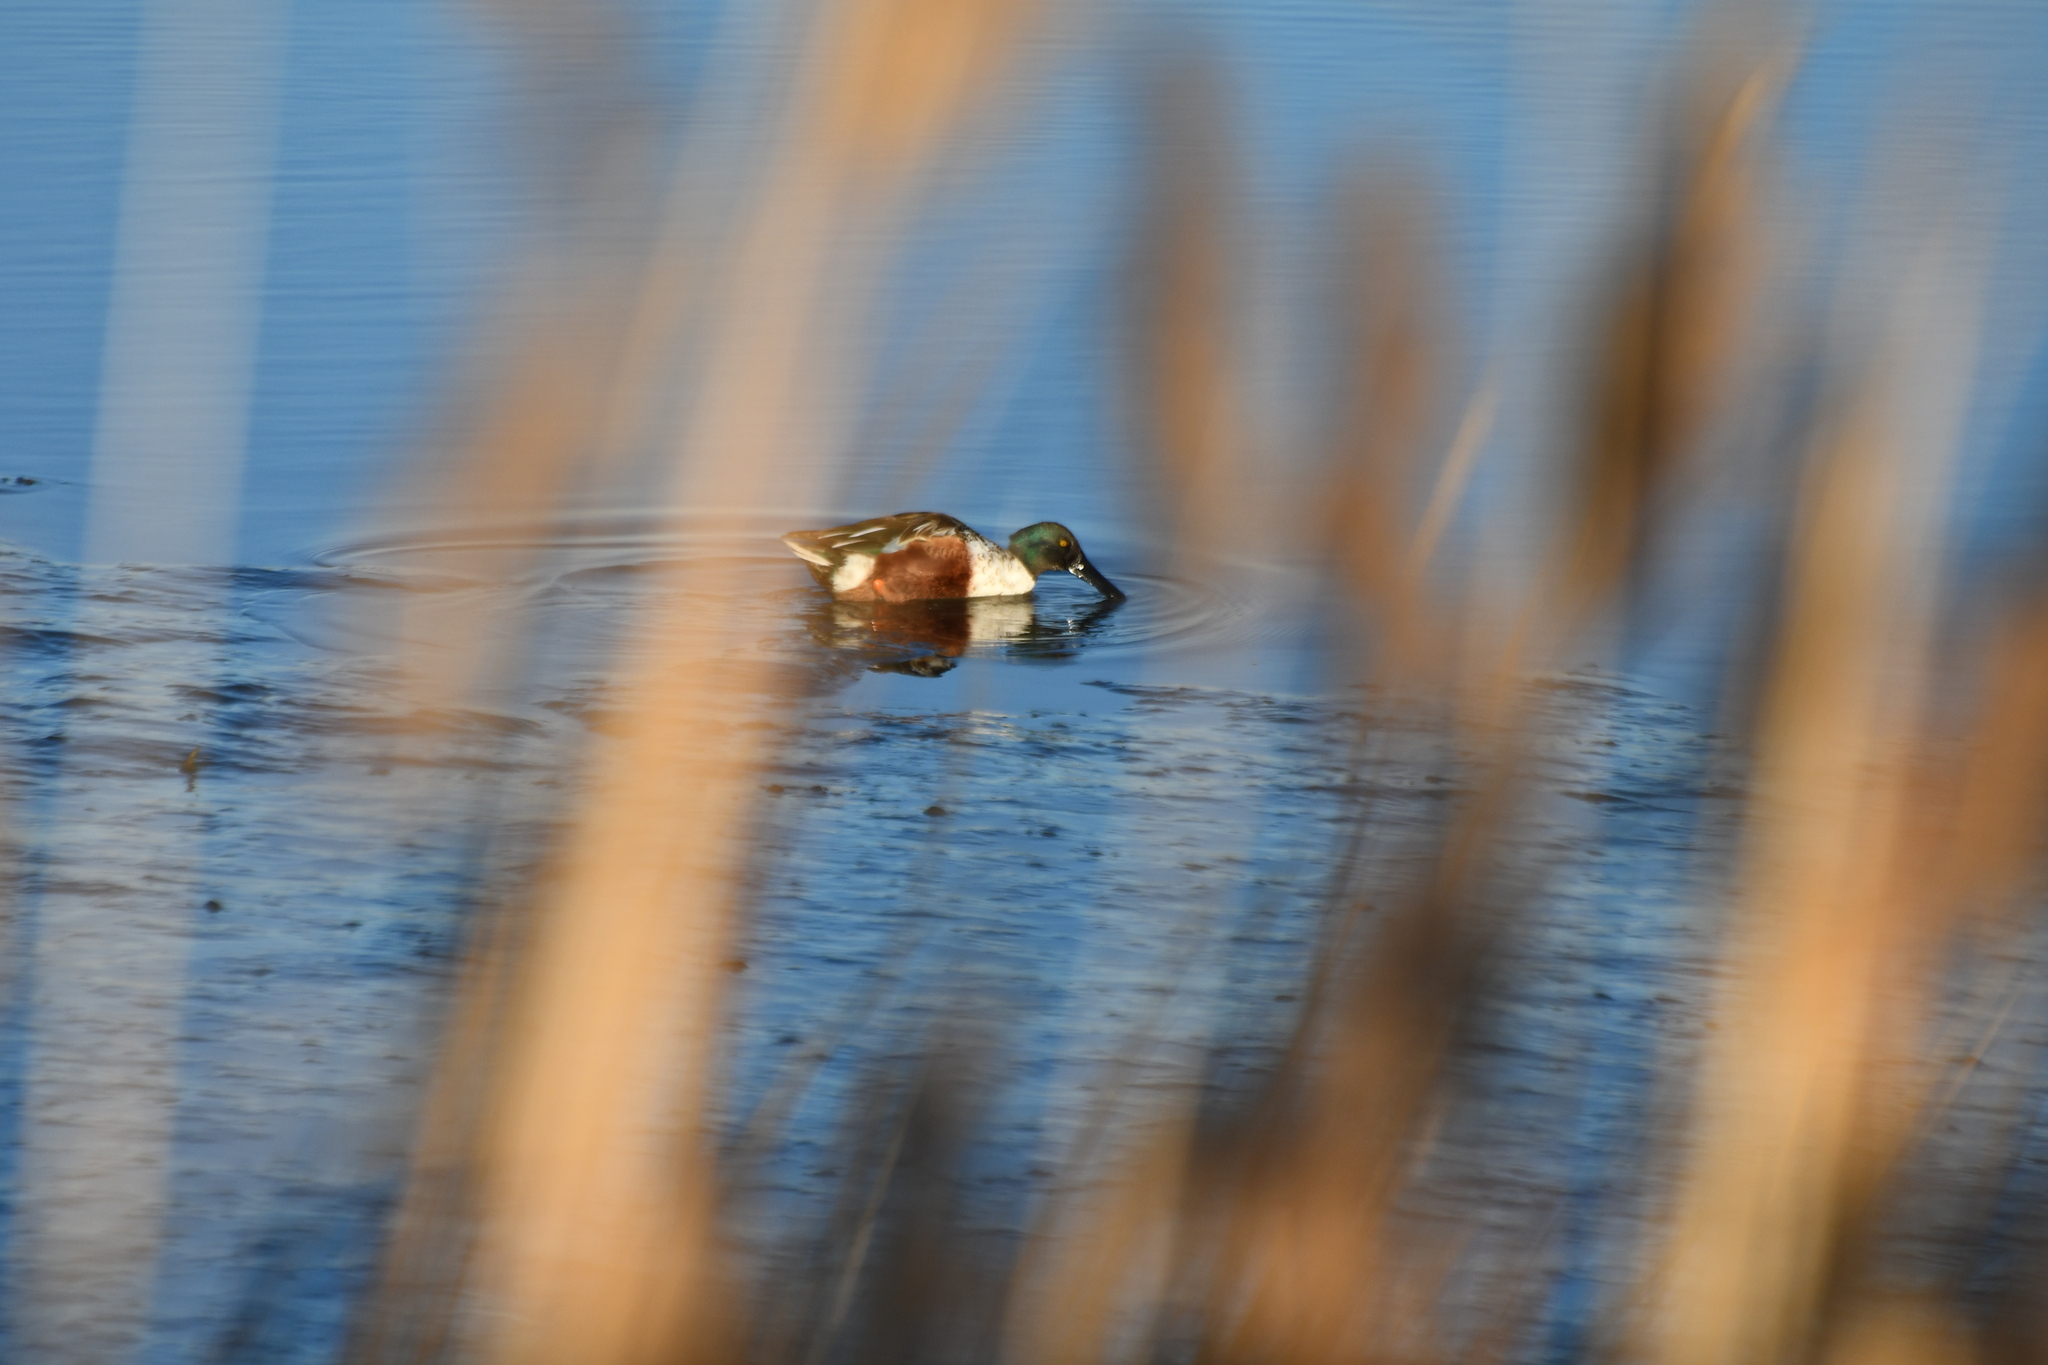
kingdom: Animalia
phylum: Chordata
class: Aves
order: Anseriformes
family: Anatidae
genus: Spatula
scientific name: Spatula clypeata
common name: Northern shoveler
